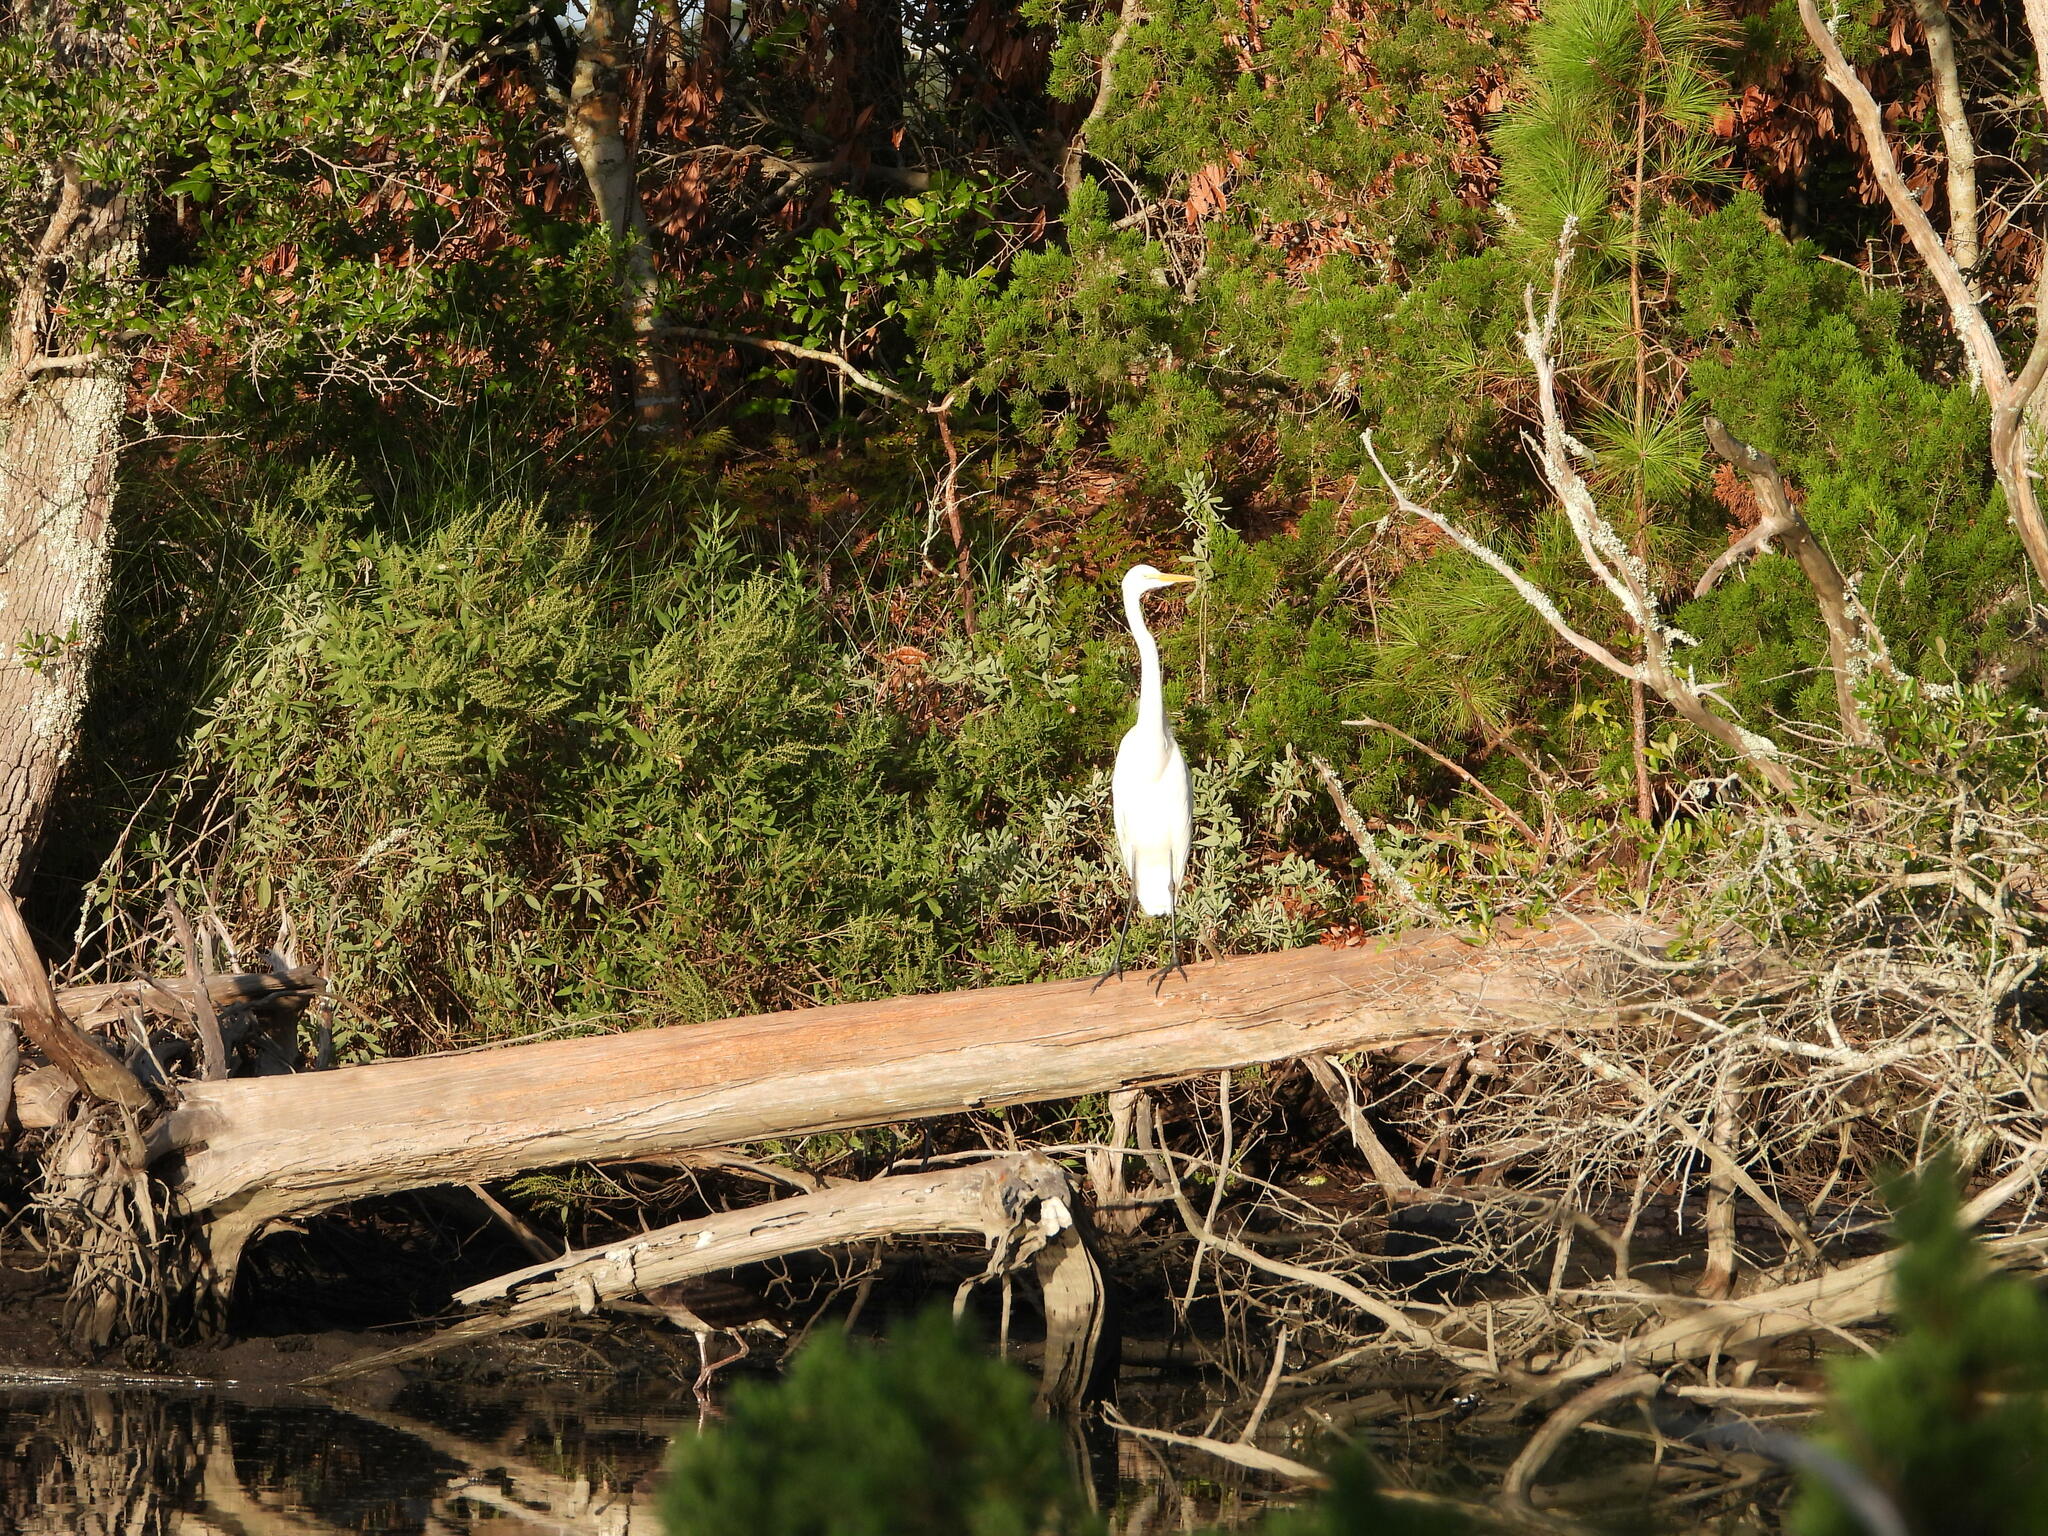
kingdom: Animalia
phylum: Chordata
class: Aves
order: Pelecaniformes
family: Ardeidae
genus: Ardea
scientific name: Ardea alba
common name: Great egret
